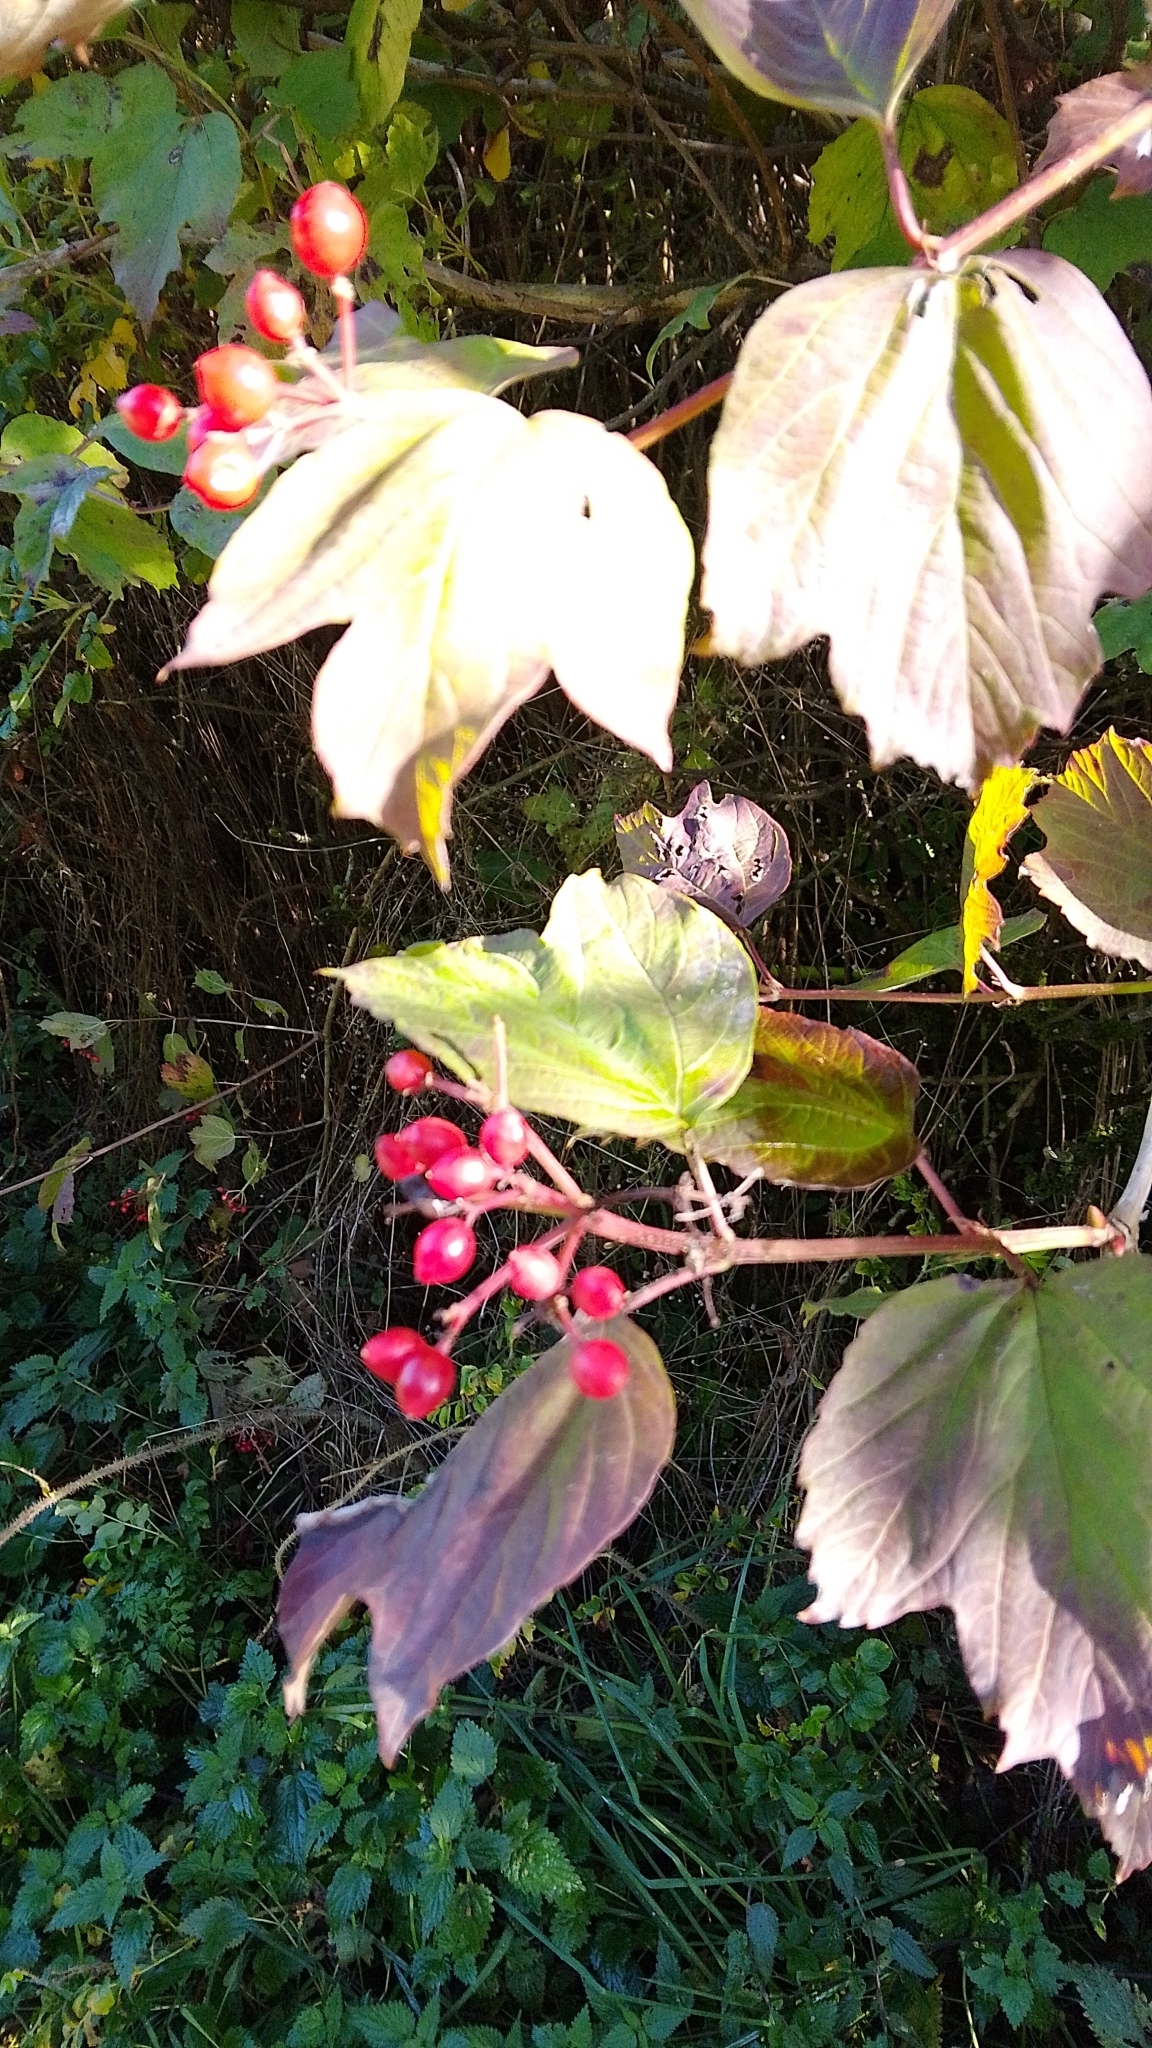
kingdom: Plantae
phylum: Tracheophyta
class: Magnoliopsida
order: Dipsacales
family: Viburnaceae
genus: Viburnum
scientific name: Viburnum opulus
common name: Guelder-rose
